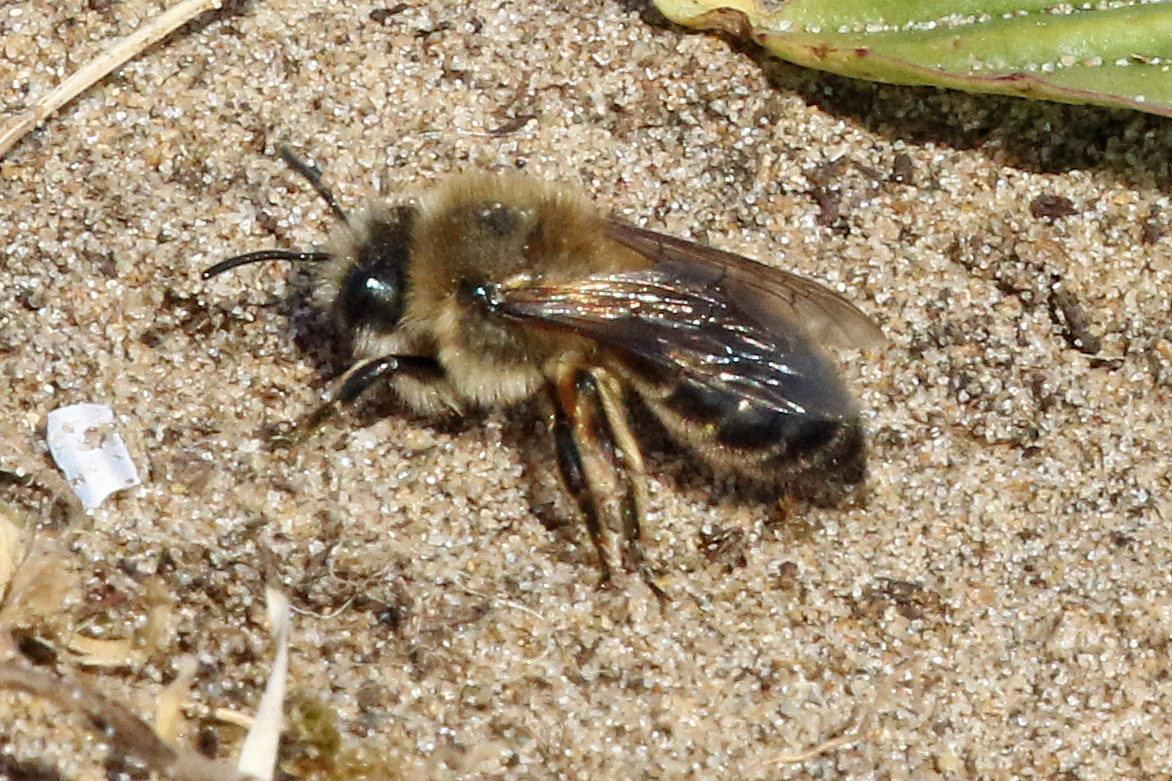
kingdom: Animalia
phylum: Arthropoda
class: Insecta
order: Hymenoptera
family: Colletidae
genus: Colletes
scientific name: Colletes cunicularius
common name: Early colletes
